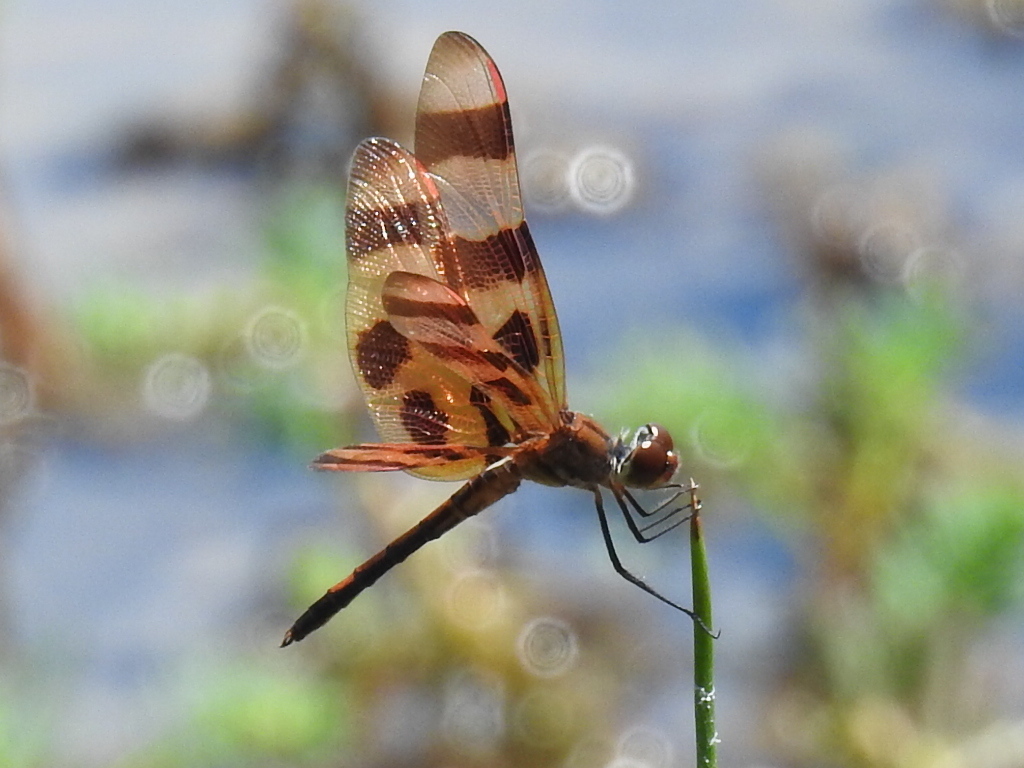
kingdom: Animalia
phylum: Arthropoda
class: Insecta
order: Odonata
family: Libellulidae
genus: Celithemis
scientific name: Celithemis eponina
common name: Halloween pennant
